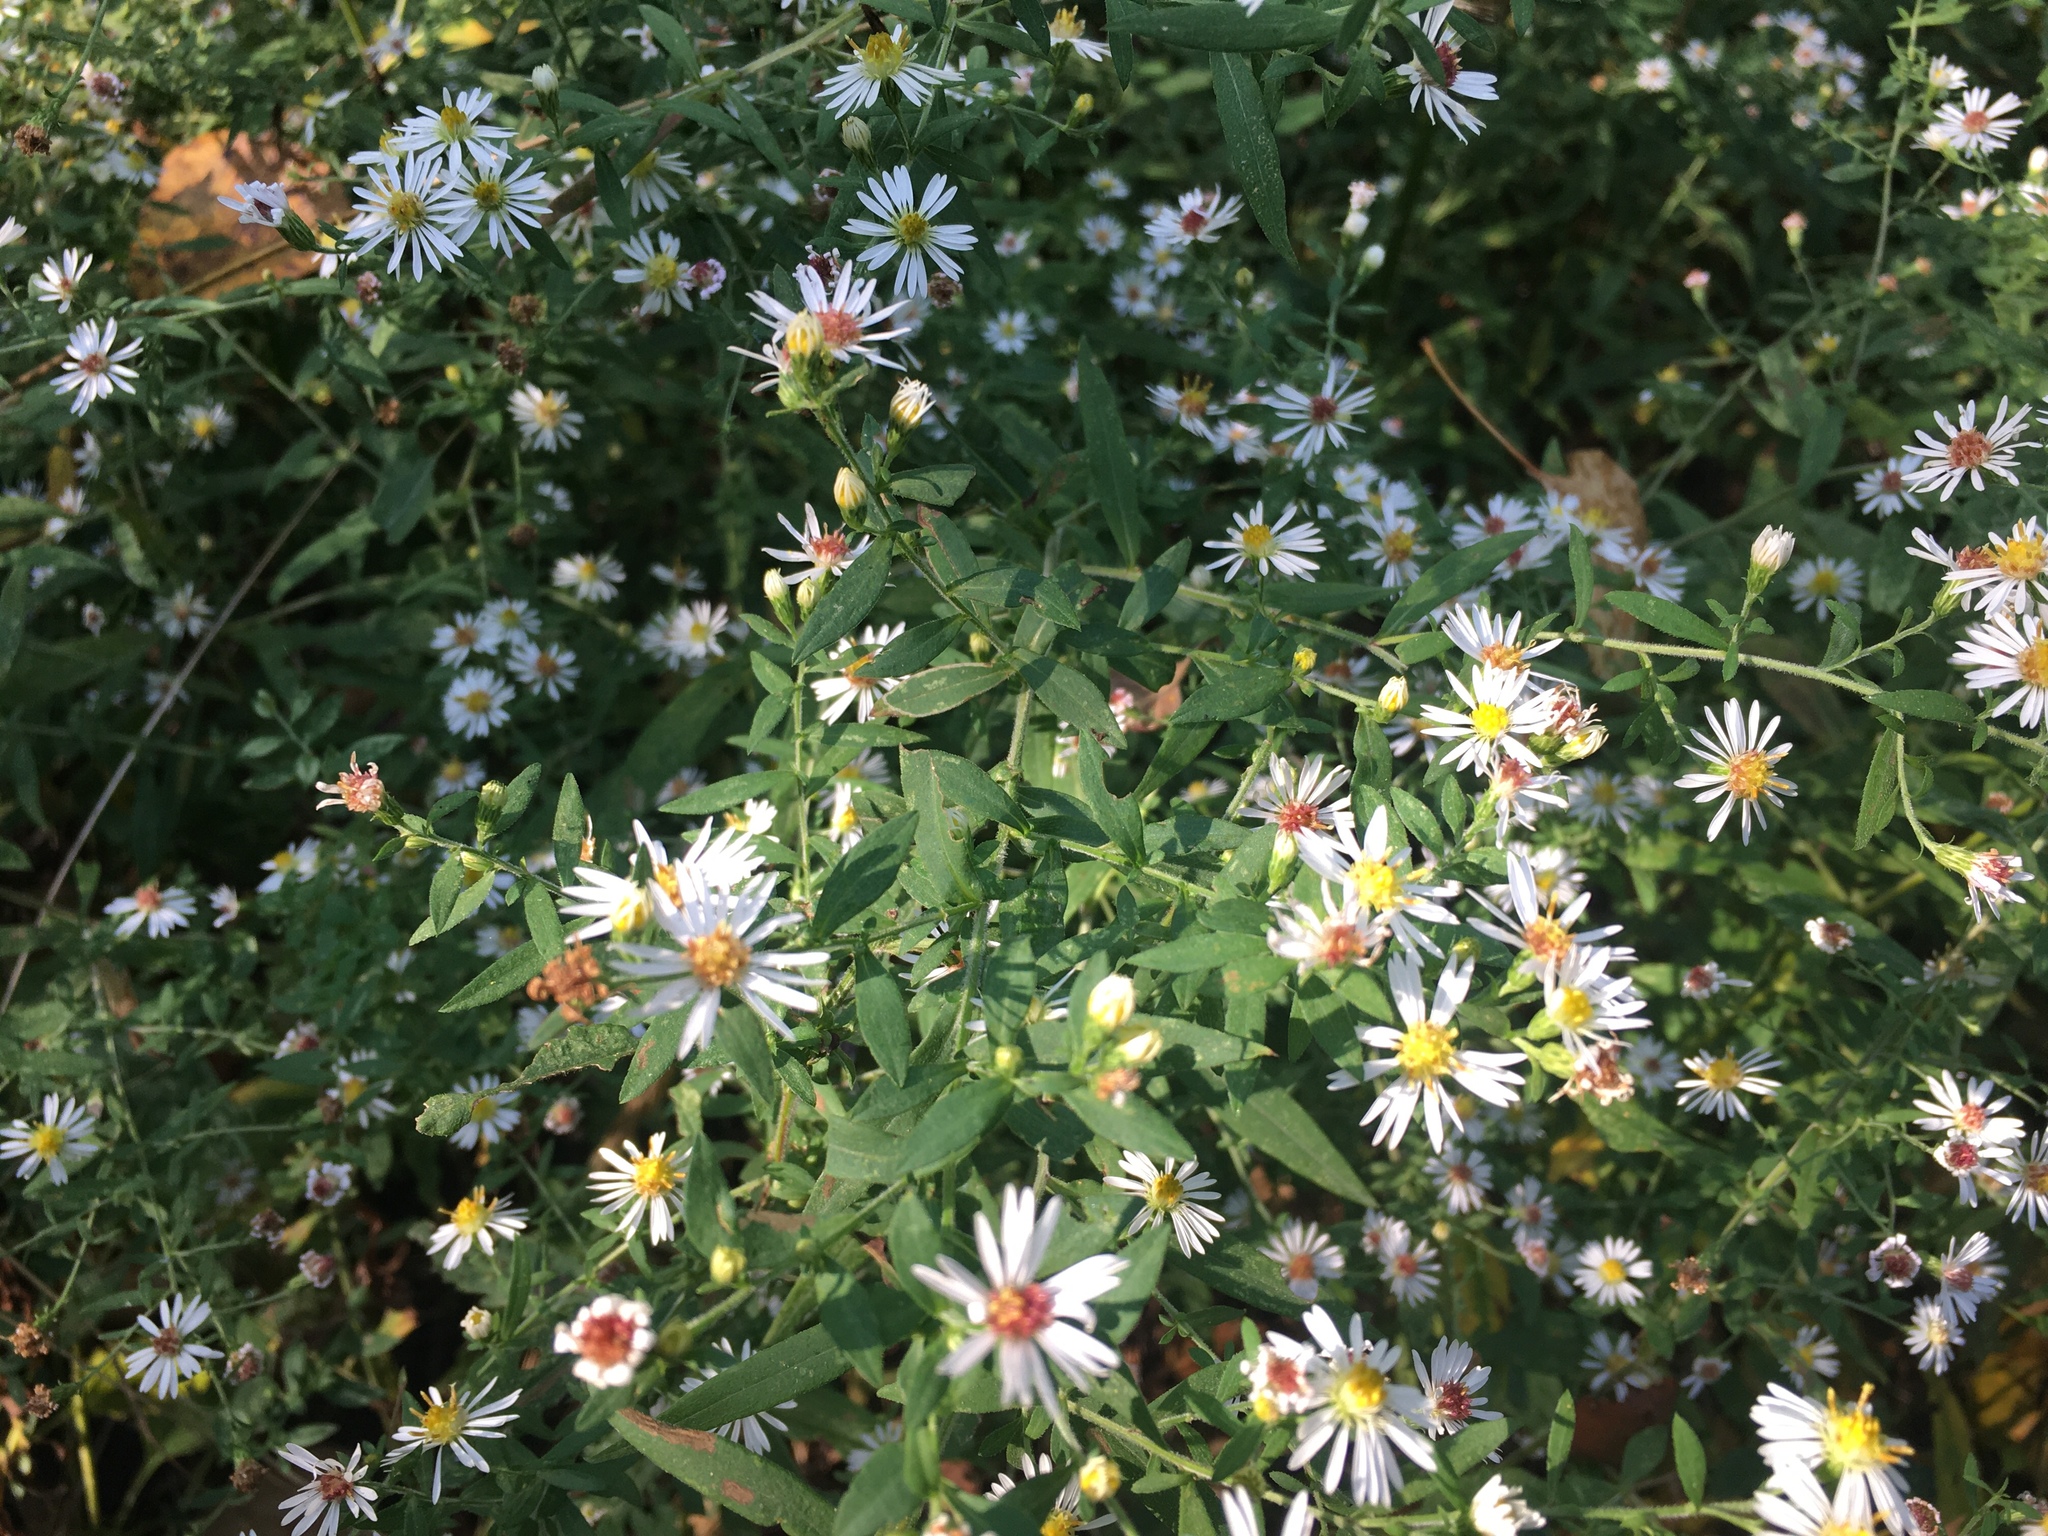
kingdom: Plantae
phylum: Tracheophyta
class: Magnoliopsida
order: Asterales
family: Asteraceae
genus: Symphyotrichum
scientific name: Symphyotrichum lanceolatum
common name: Panicled aster
